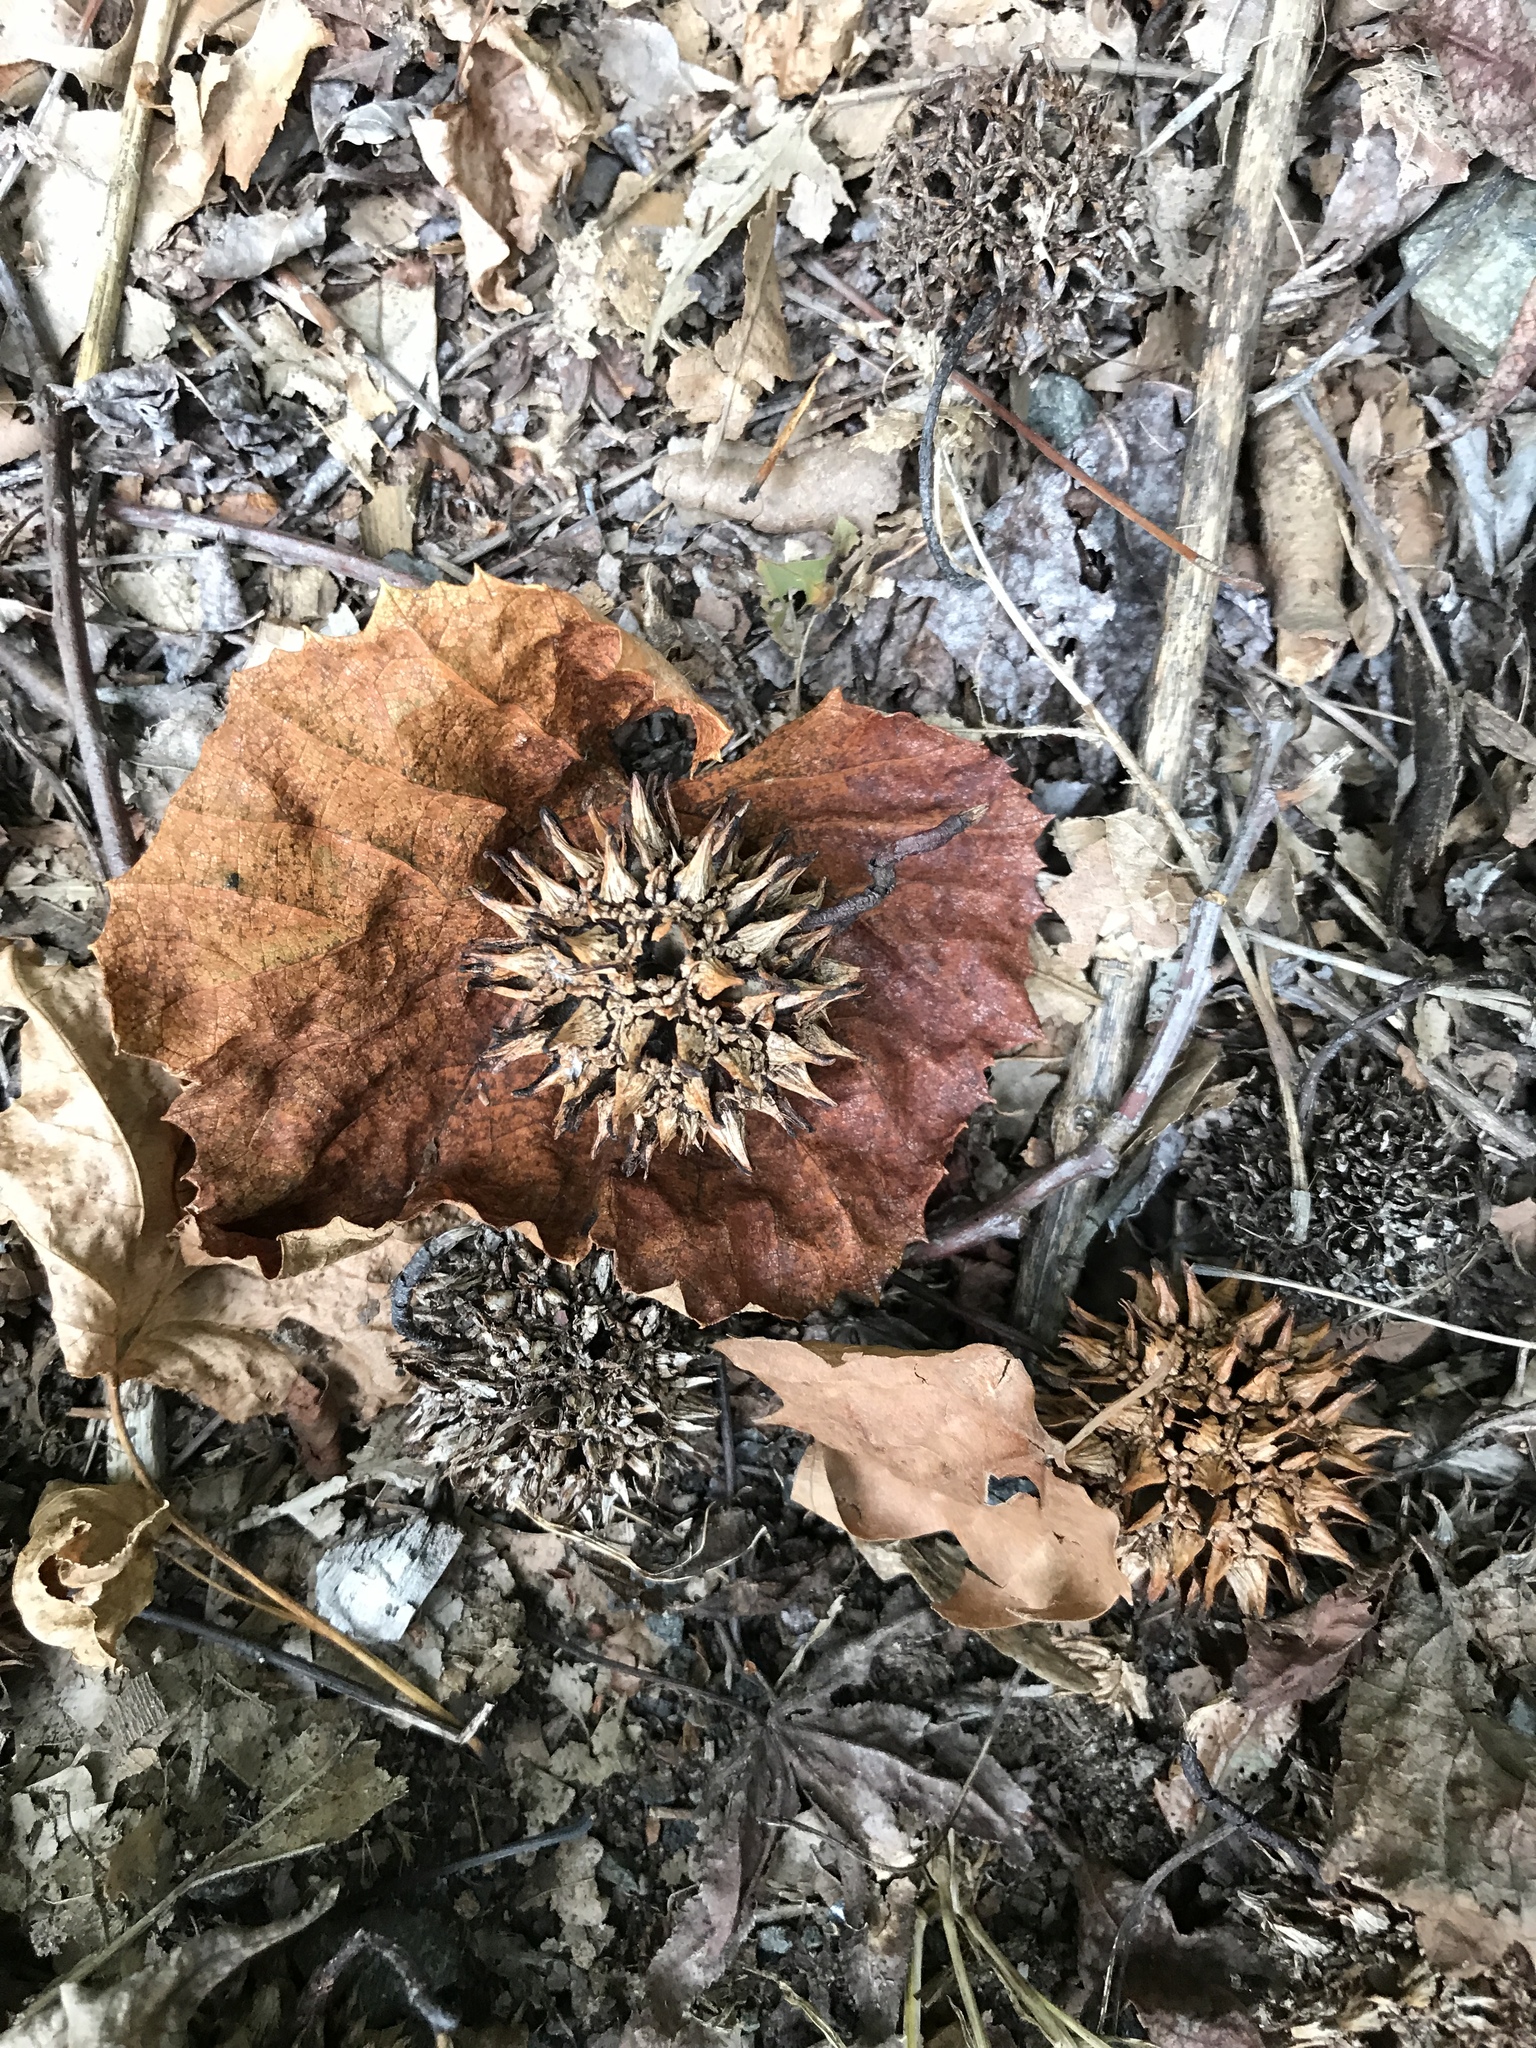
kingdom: Plantae
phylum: Tracheophyta
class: Magnoliopsida
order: Saxifragales
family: Altingiaceae
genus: Liquidambar
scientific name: Liquidambar styraciflua
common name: Sweet gum
